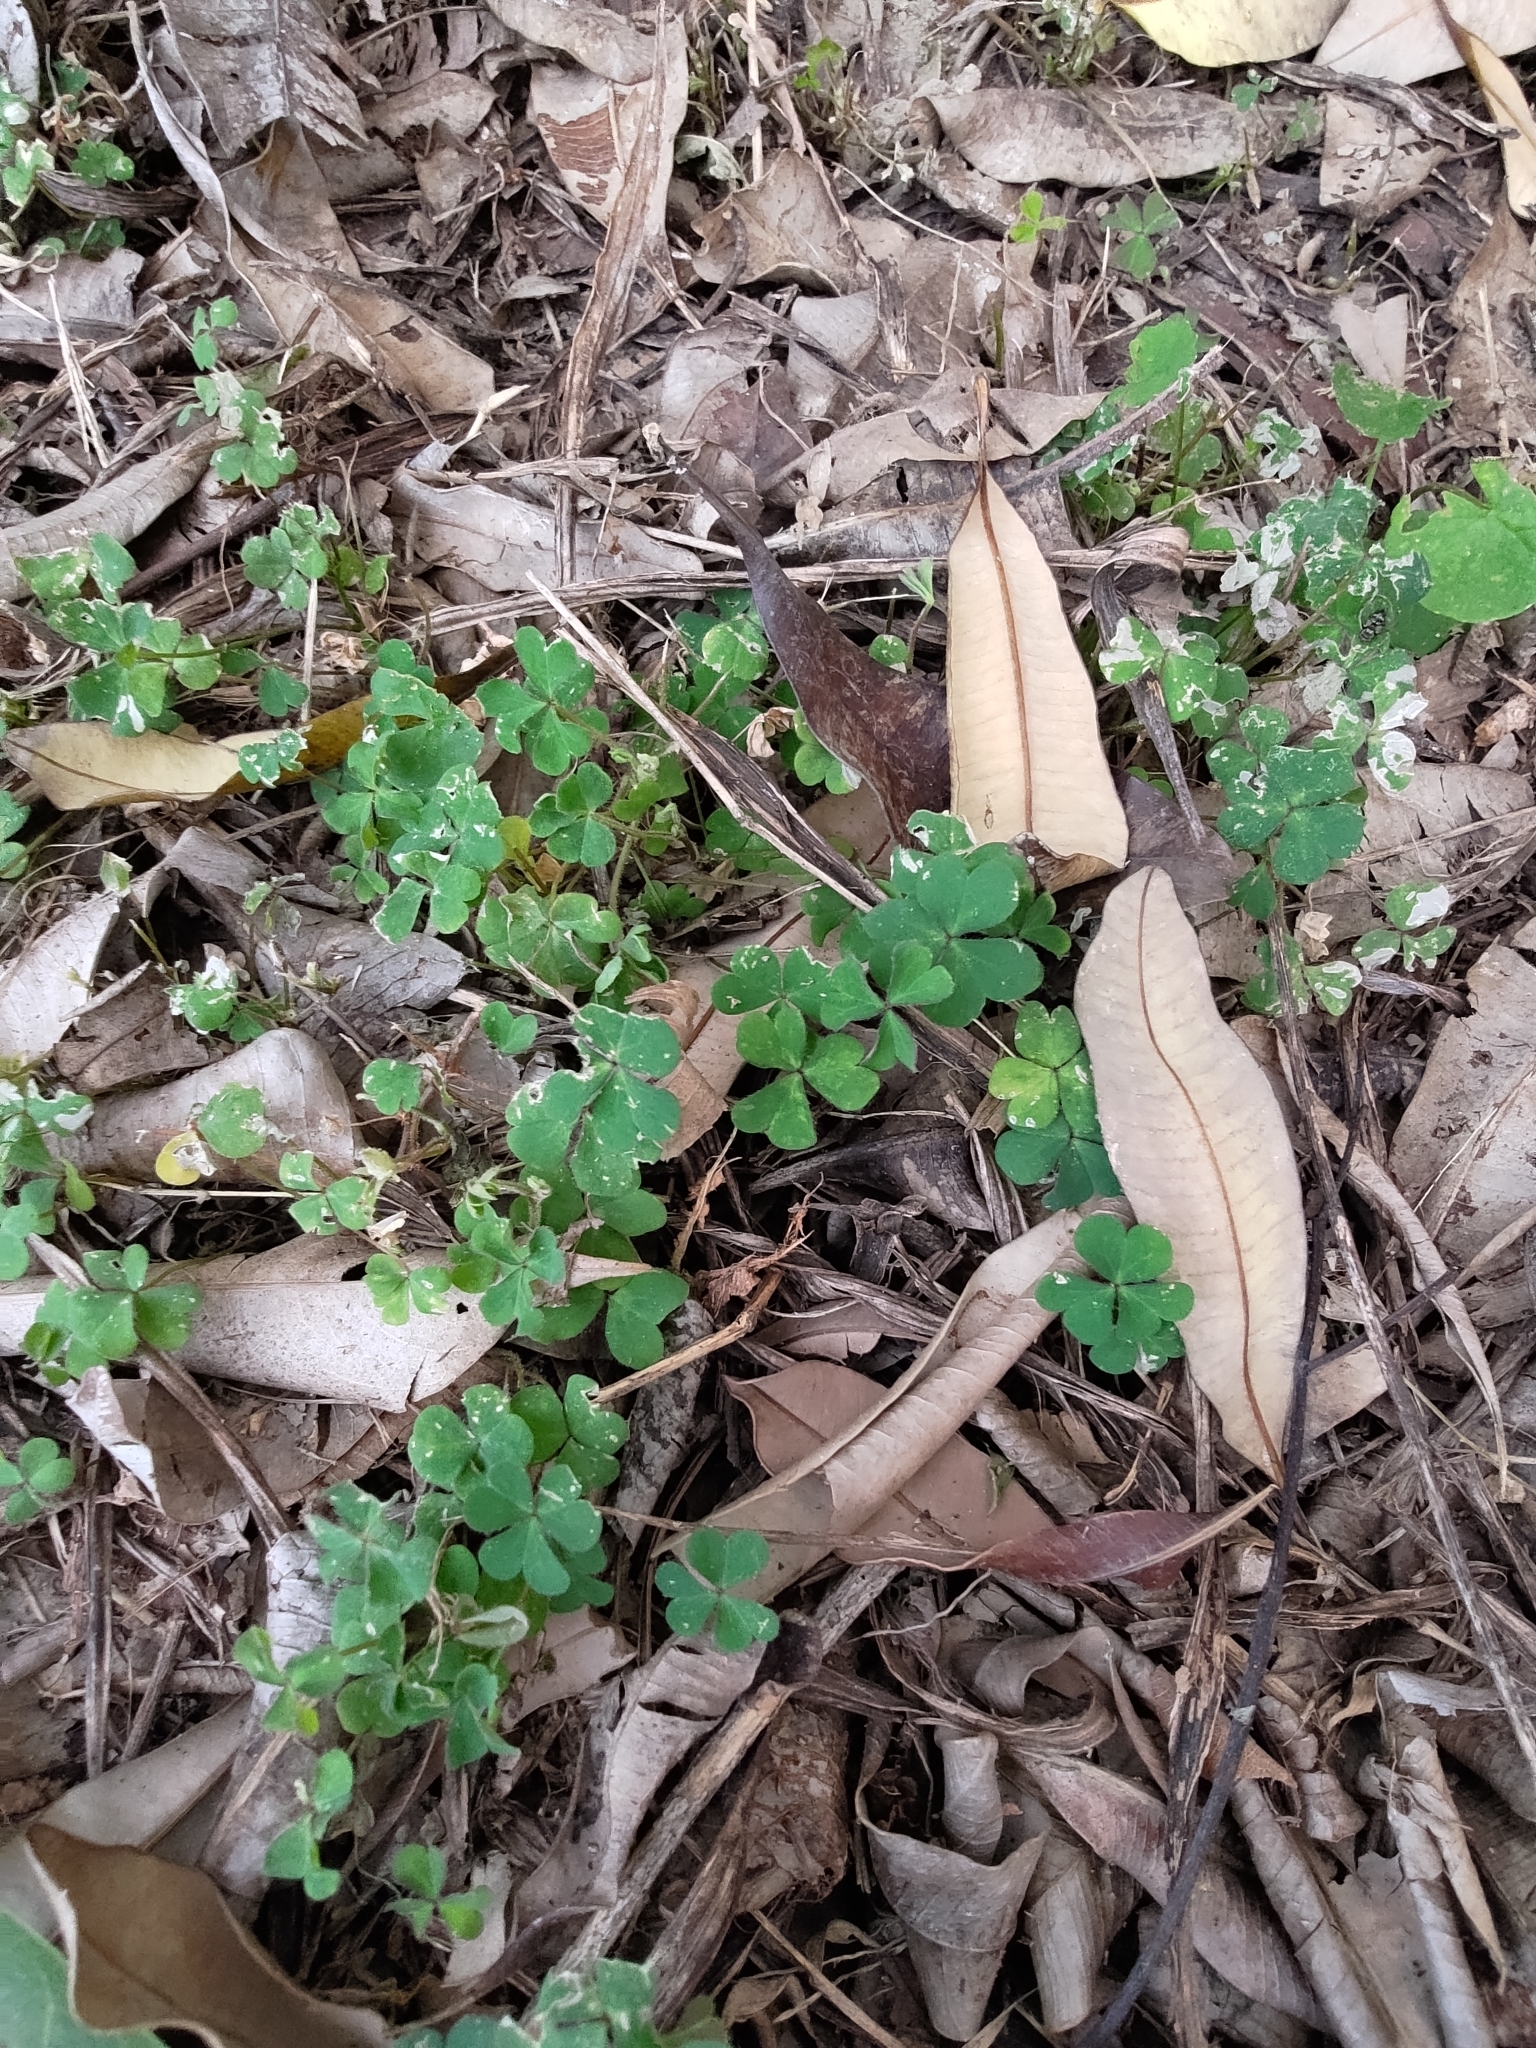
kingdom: Plantae
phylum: Tracheophyta
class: Magnoliopsida
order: Oxalidales
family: Oxalidaceae
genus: Oxalis
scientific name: Oxalis corniculata
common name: Procumbent yellow-sorrel
